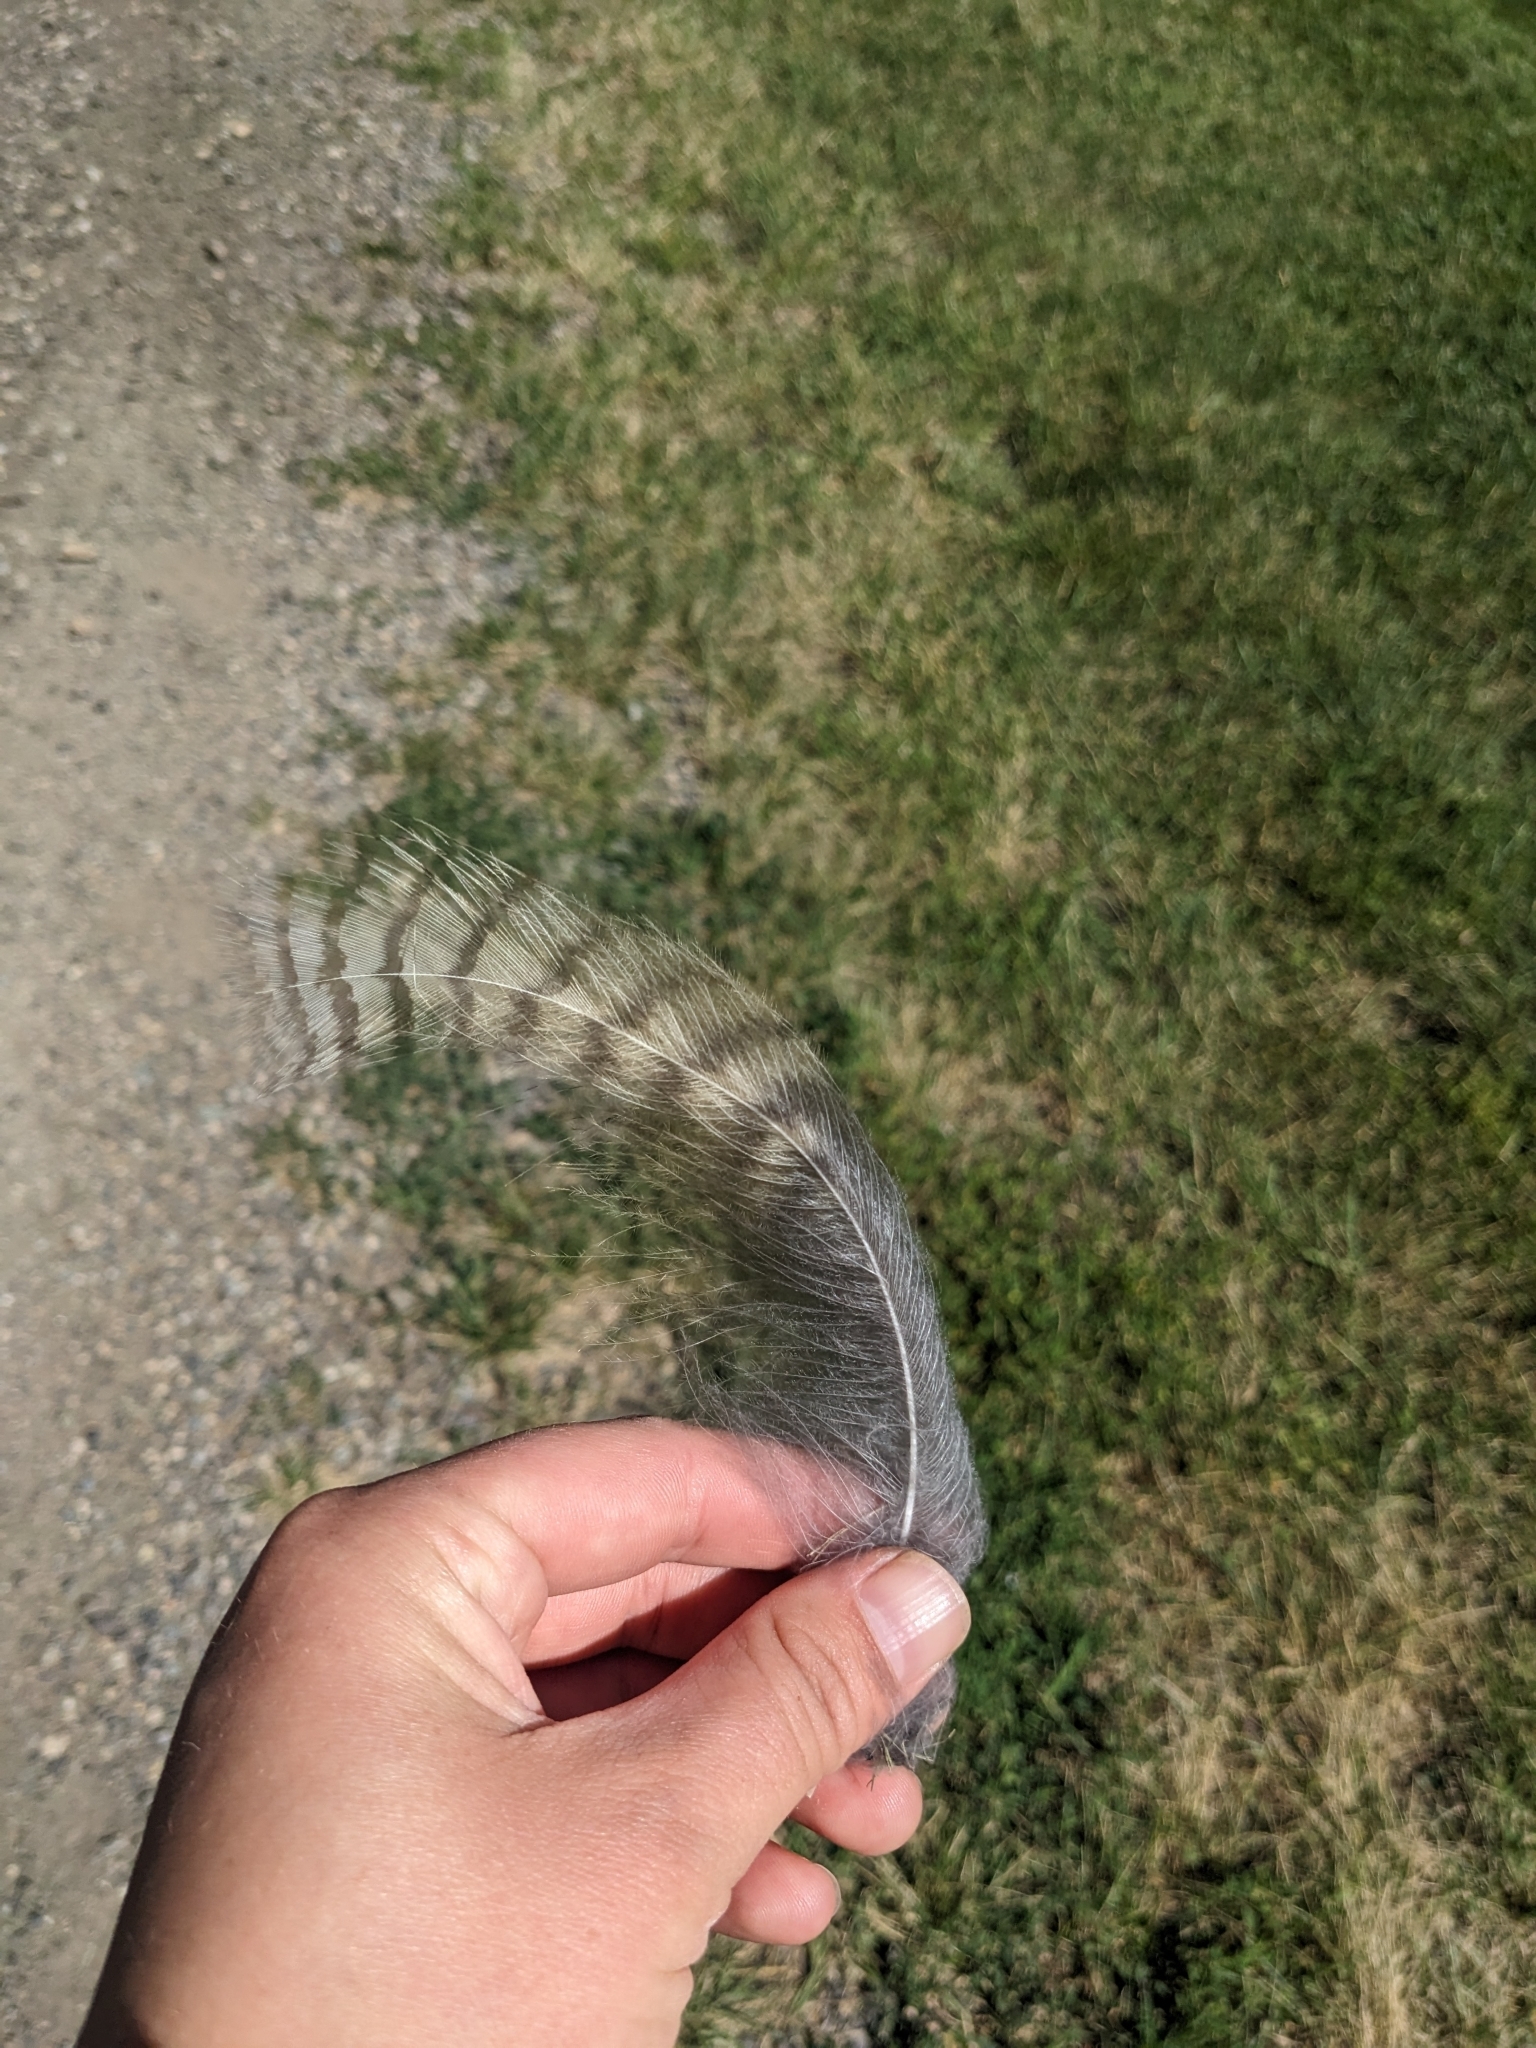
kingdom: Animalia
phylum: Chordata
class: Aves
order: Strigiformes
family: Strigidae
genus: Bubo
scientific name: Bubo virginianus
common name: Great horned owl
